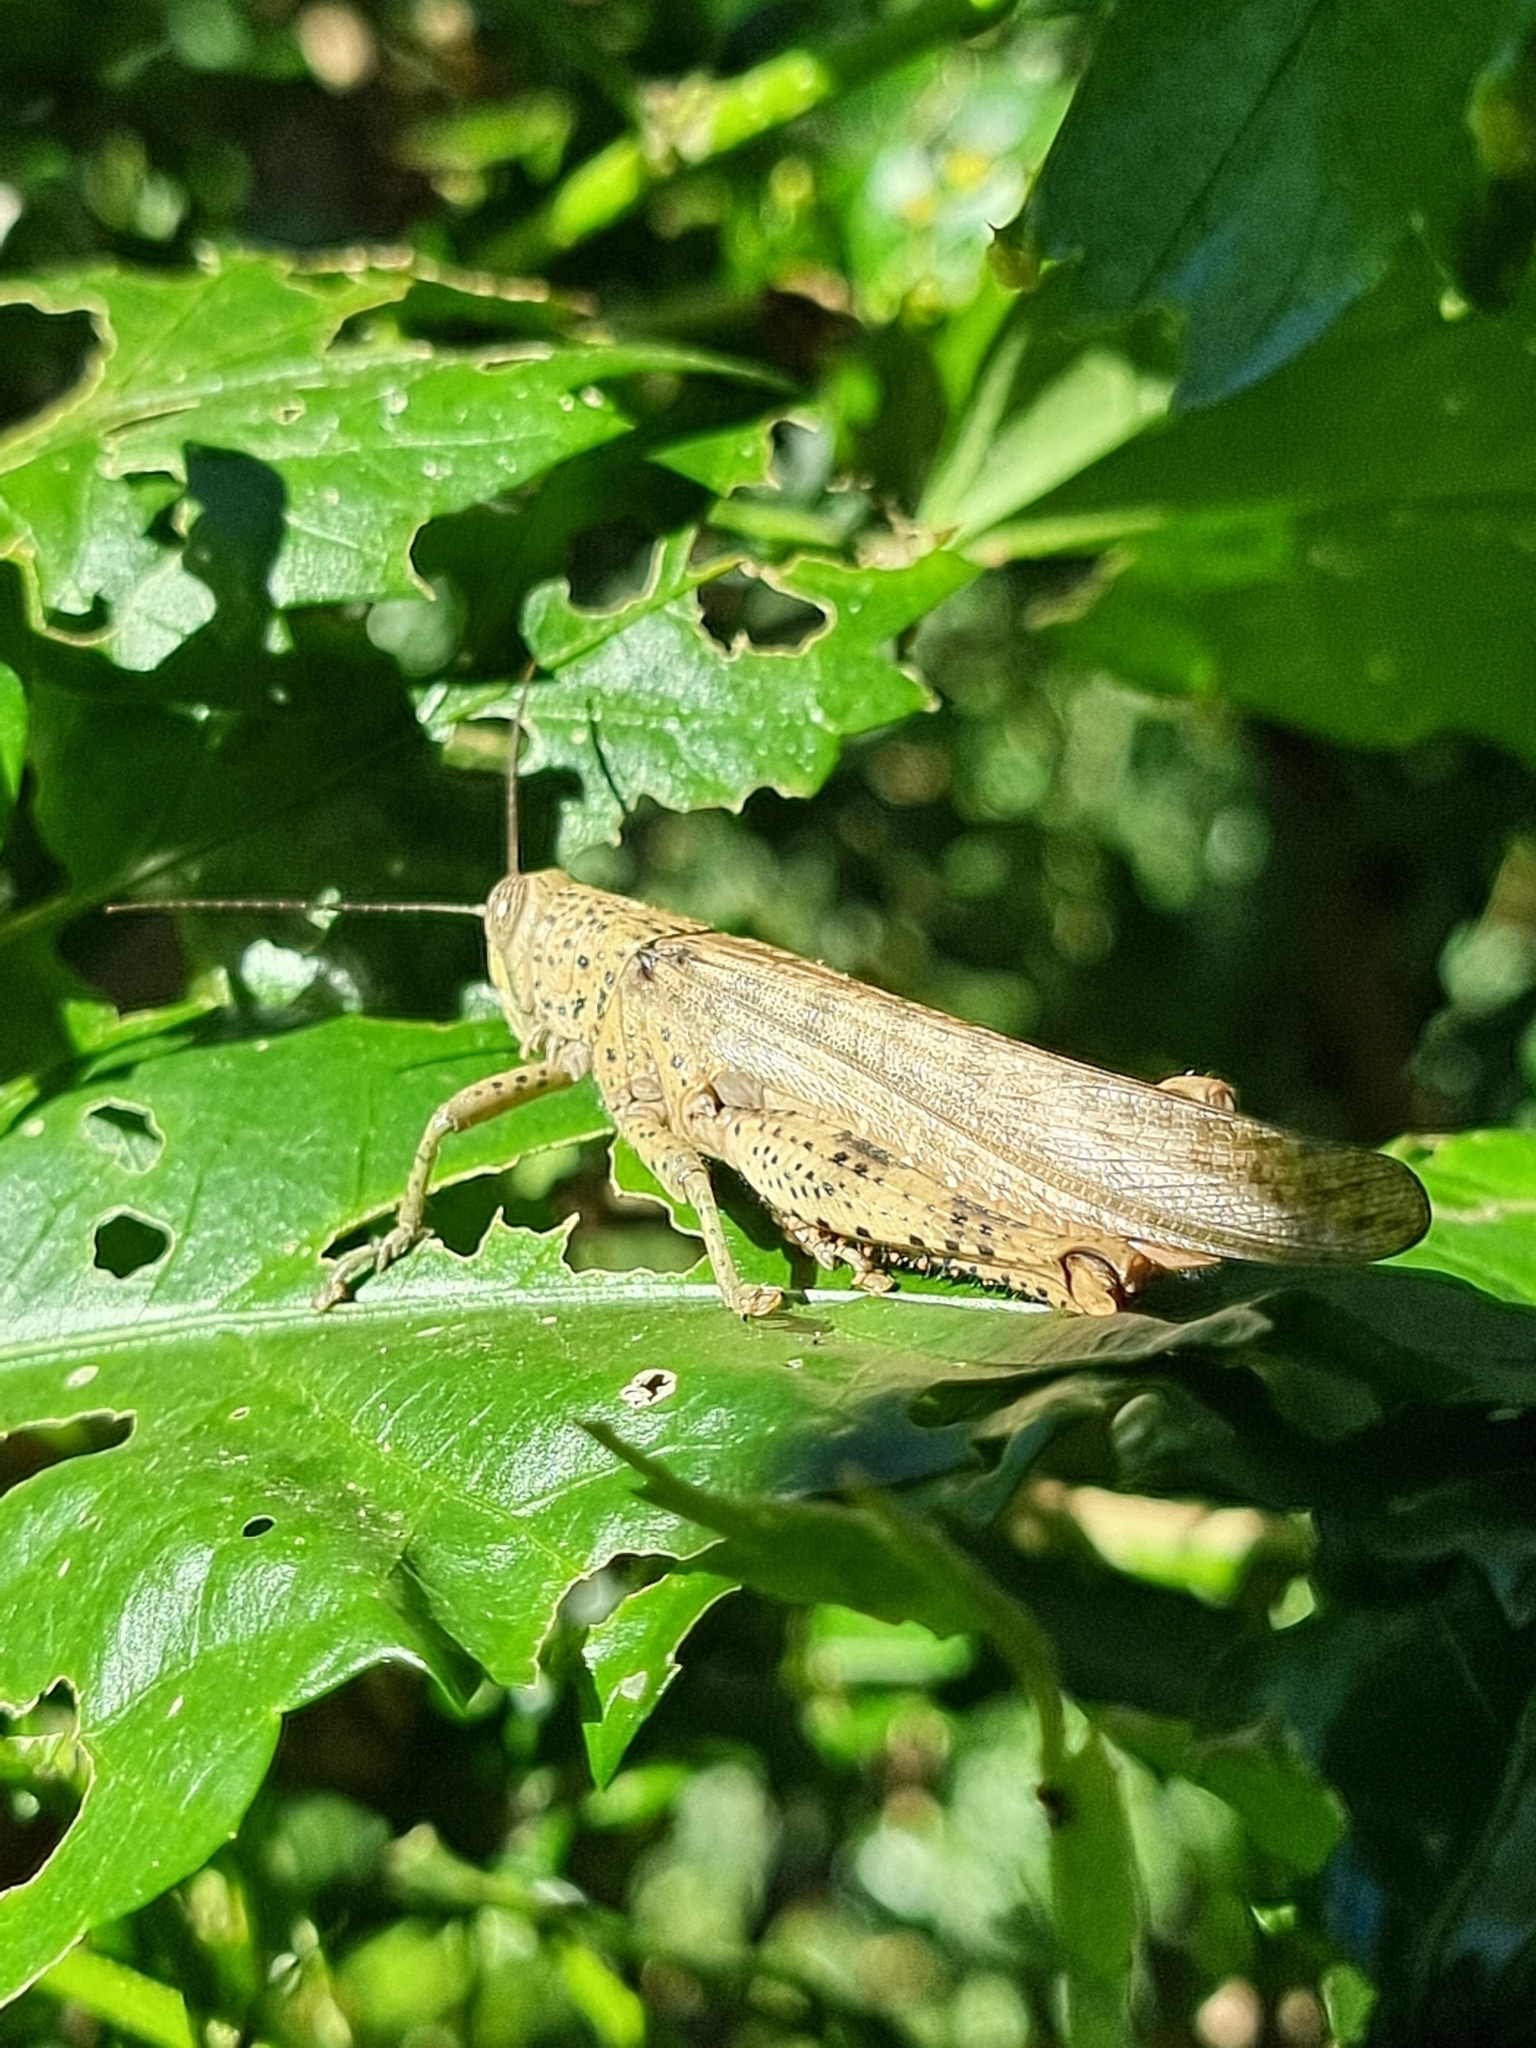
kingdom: Animalia
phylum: Arthropoda
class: Insecta
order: Orthoptera
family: Acrididae
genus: Valanga
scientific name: Valanga irregularis
